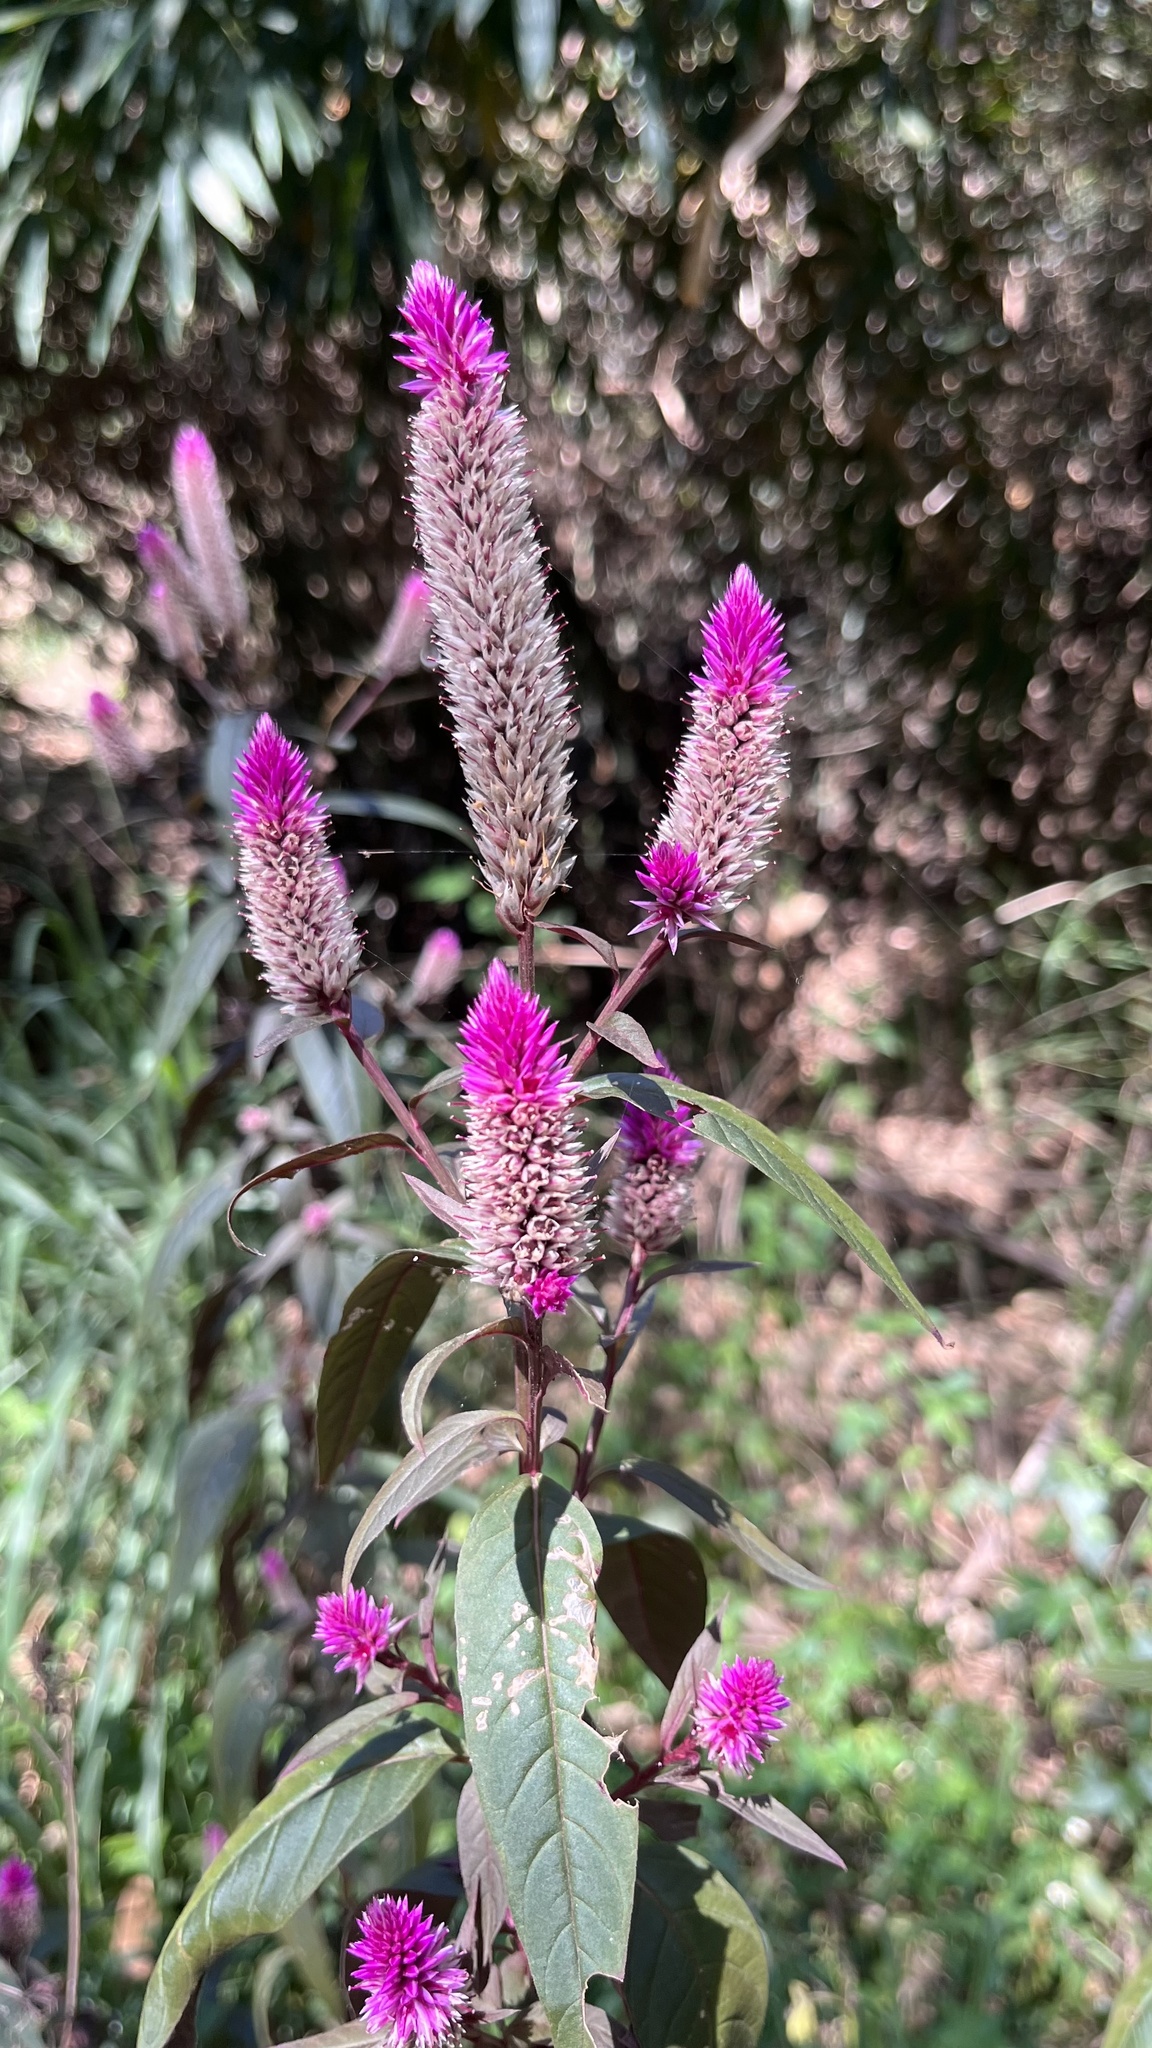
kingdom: Plantae
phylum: Tracheophyta
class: Magnoliopsida
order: Caryophyllales
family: Amaranthaceae
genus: Celosia
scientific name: Celosia argentea
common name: Feather cockscomb
